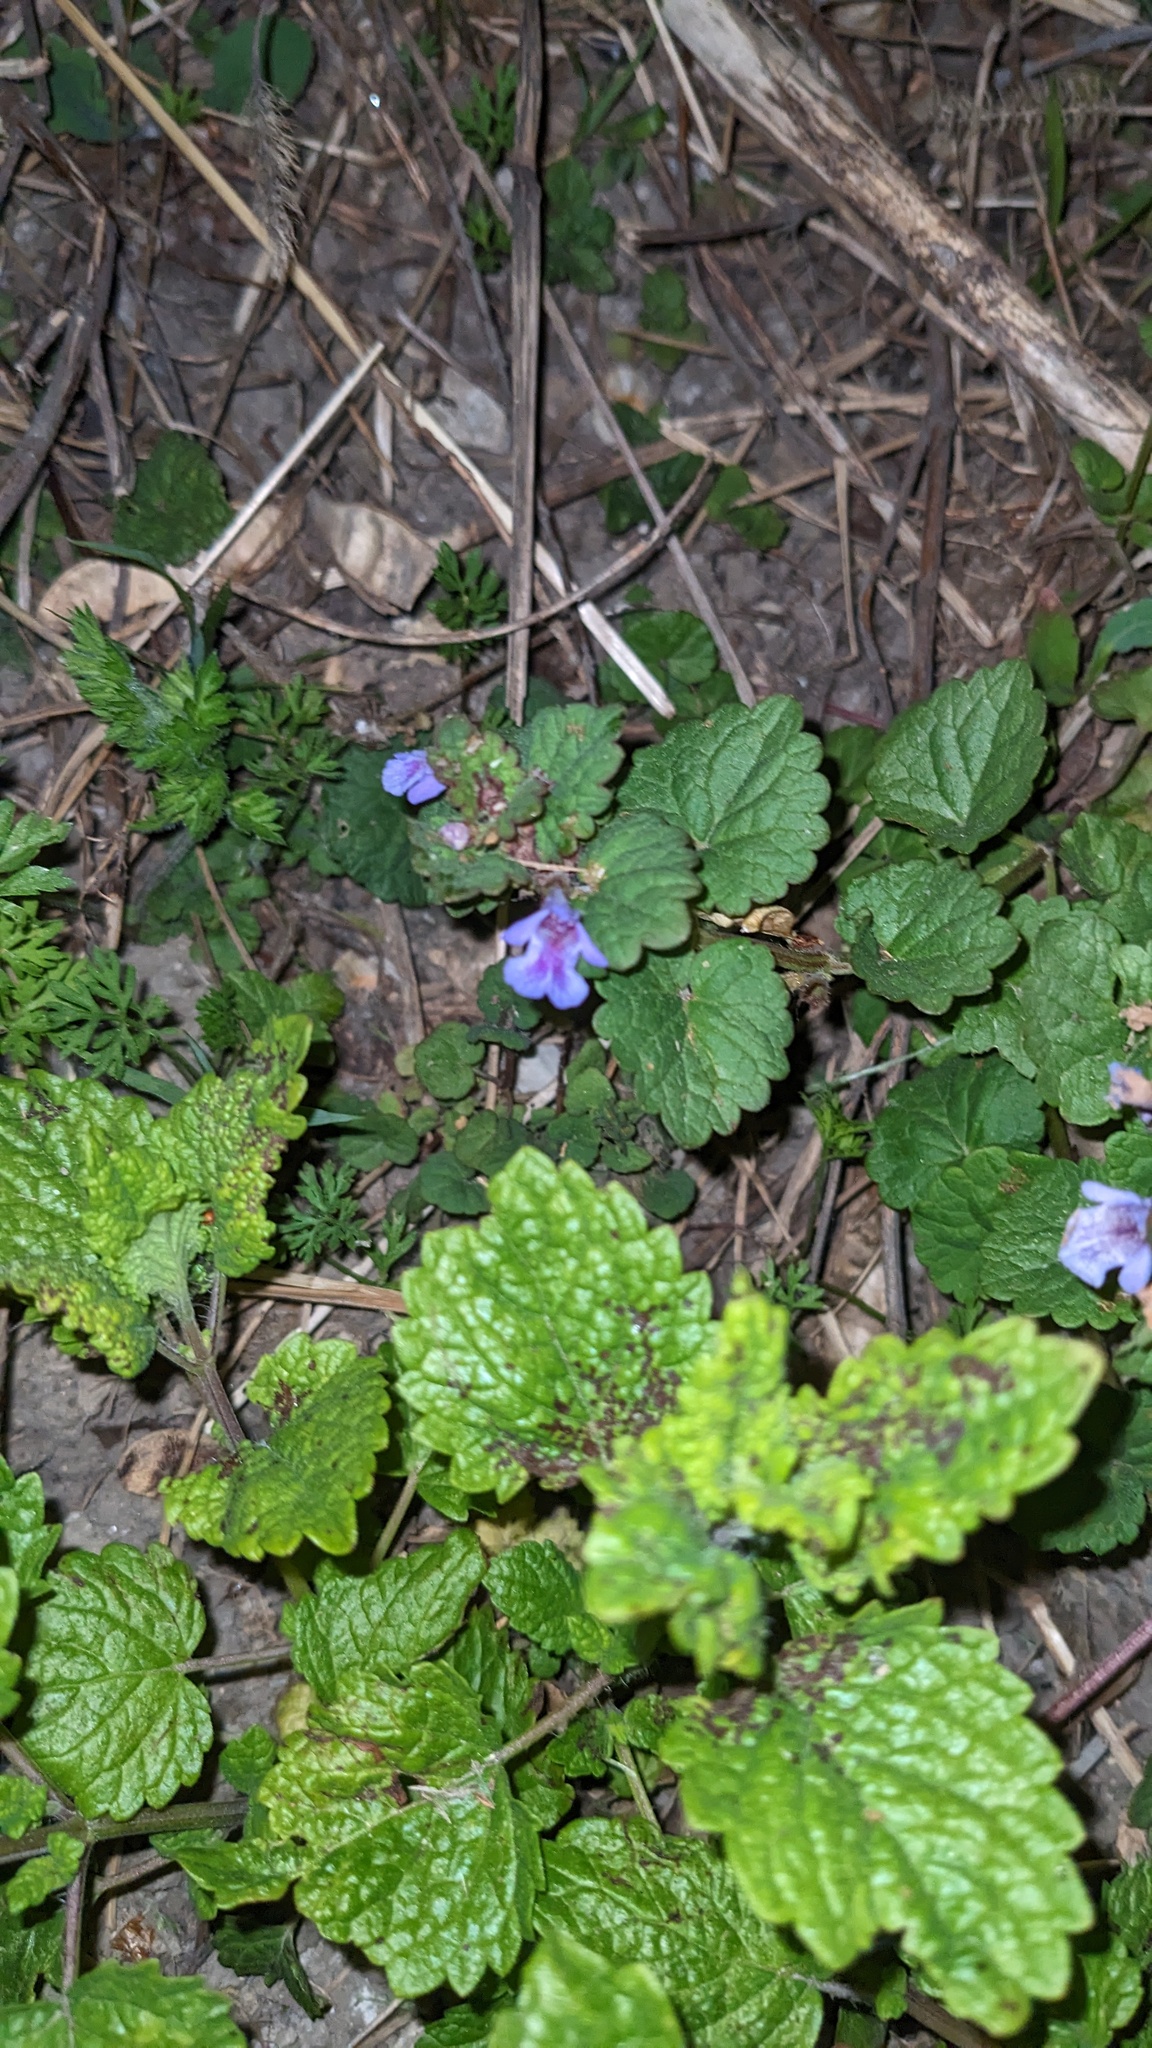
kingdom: Plantae
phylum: Tracheophyta
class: Magnoliopsida
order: Lamiales
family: Lamiaceae
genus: Glechoma
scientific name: Glechoma hederacea
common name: Ground ivy
